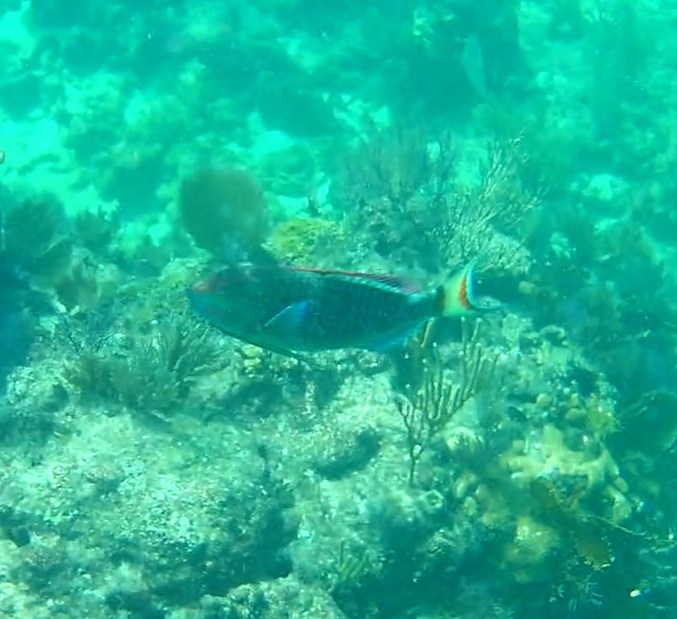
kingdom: Animalia
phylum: Chordata
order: Perciformes
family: Scaridae
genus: Sparisoma
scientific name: Sparisoma viride
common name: Stoplight parrotfish
